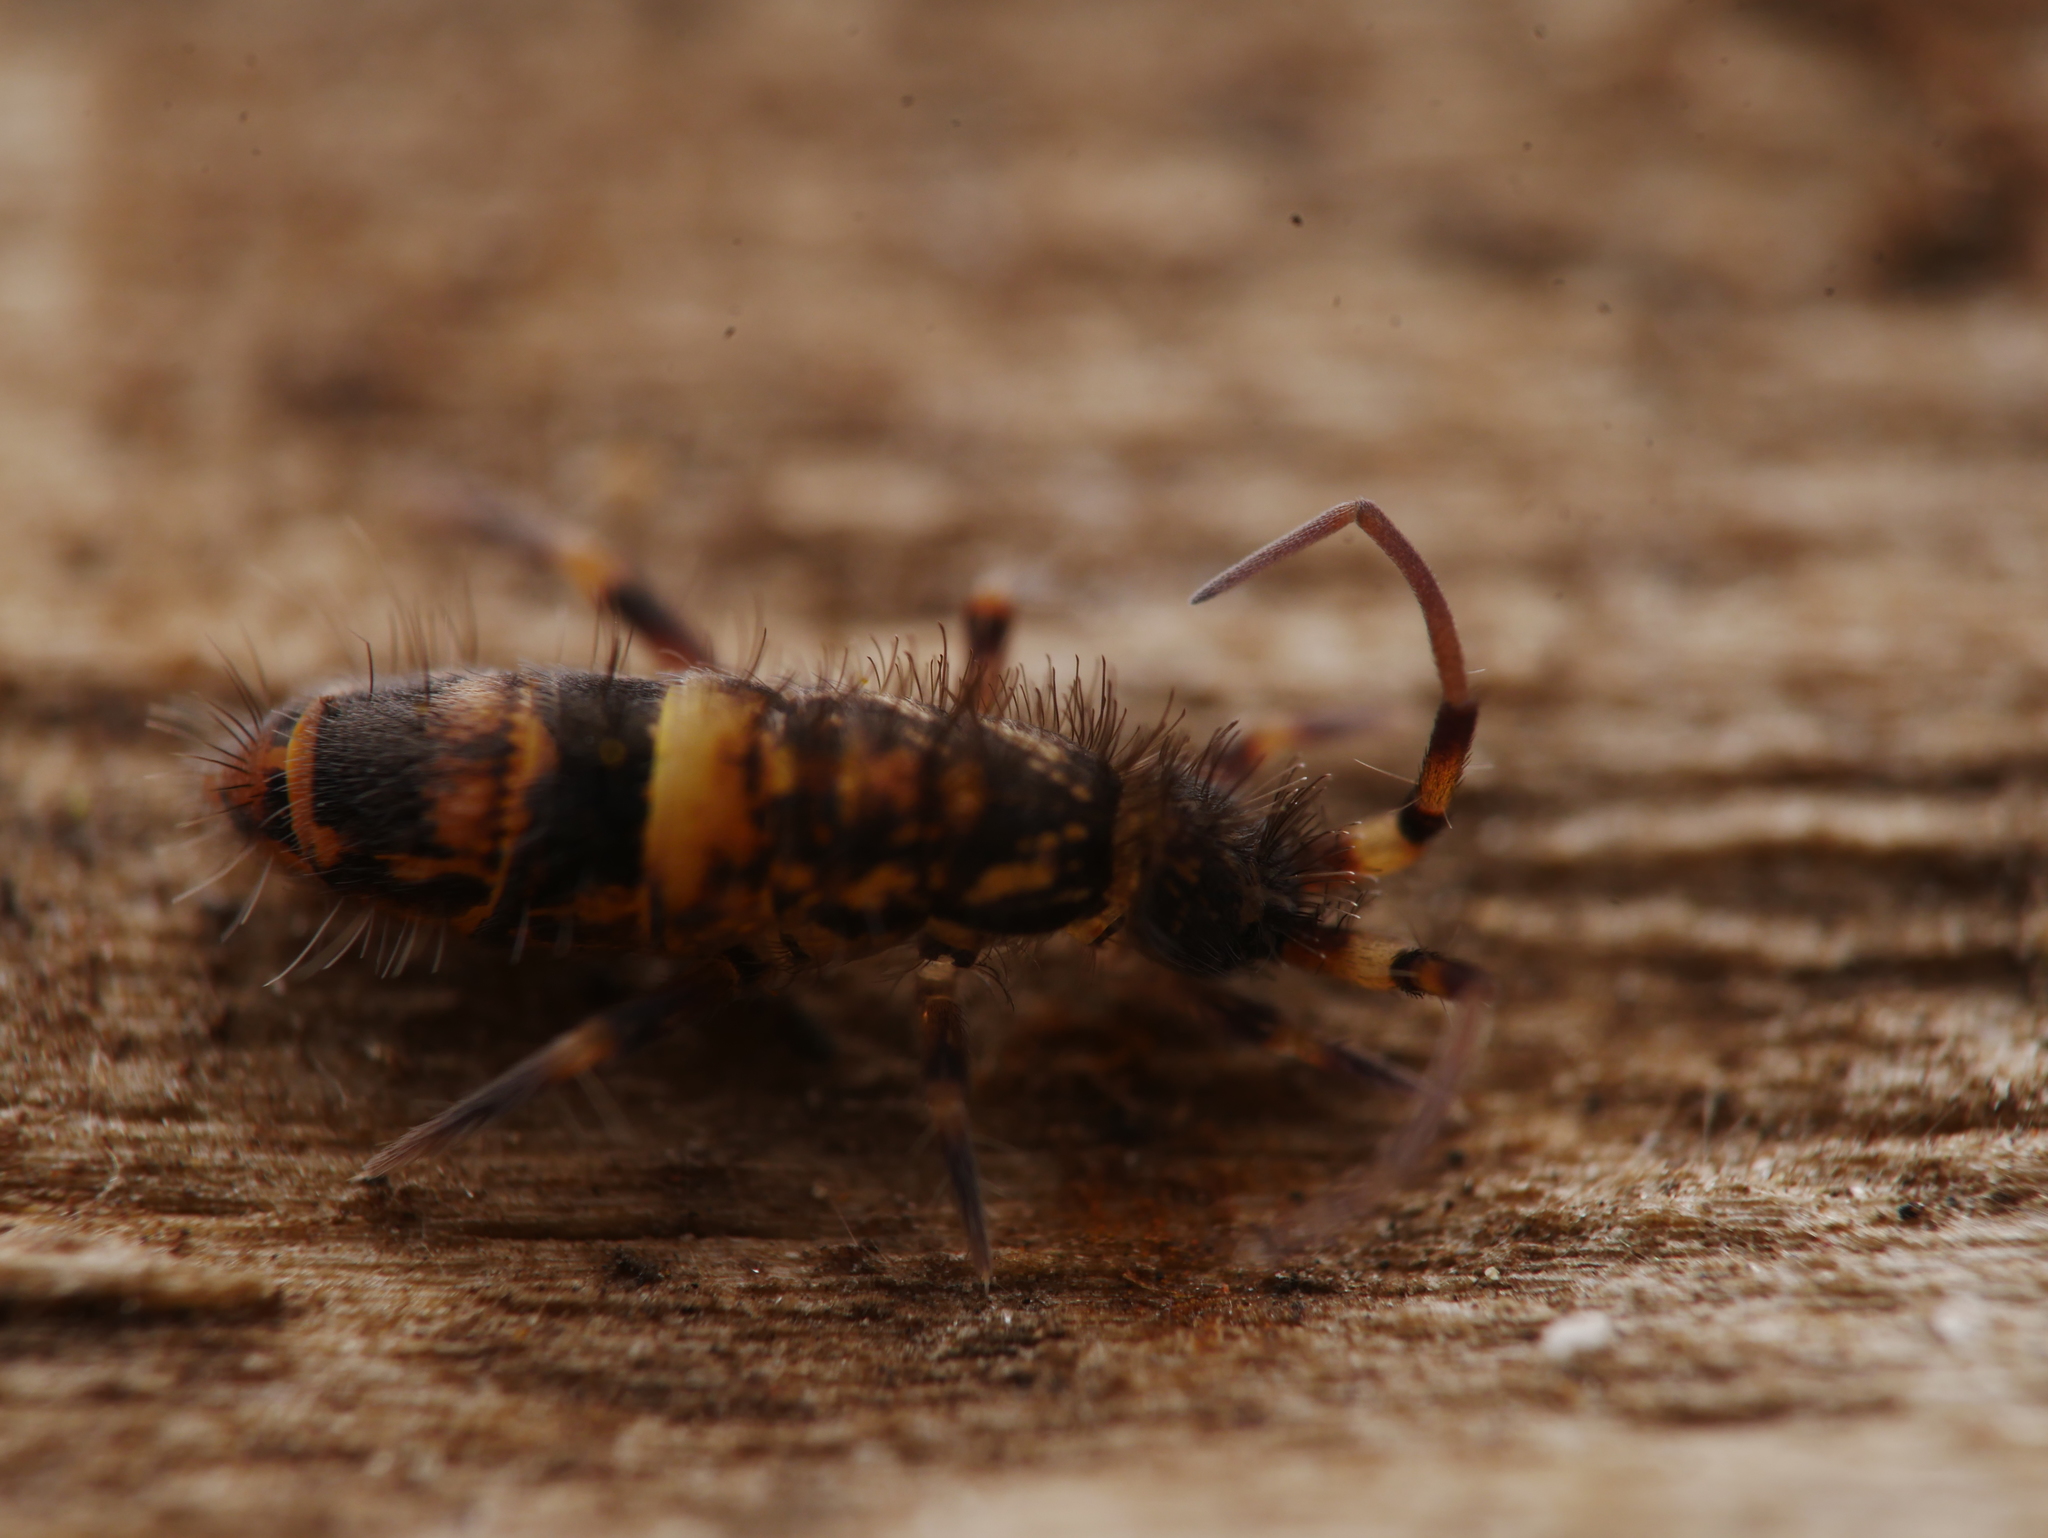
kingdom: Animalia
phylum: Arthropoda
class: Collembola
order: Entomobryomorpha
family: Orchesellidae
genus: Orchesella
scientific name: Orchesella cincta
